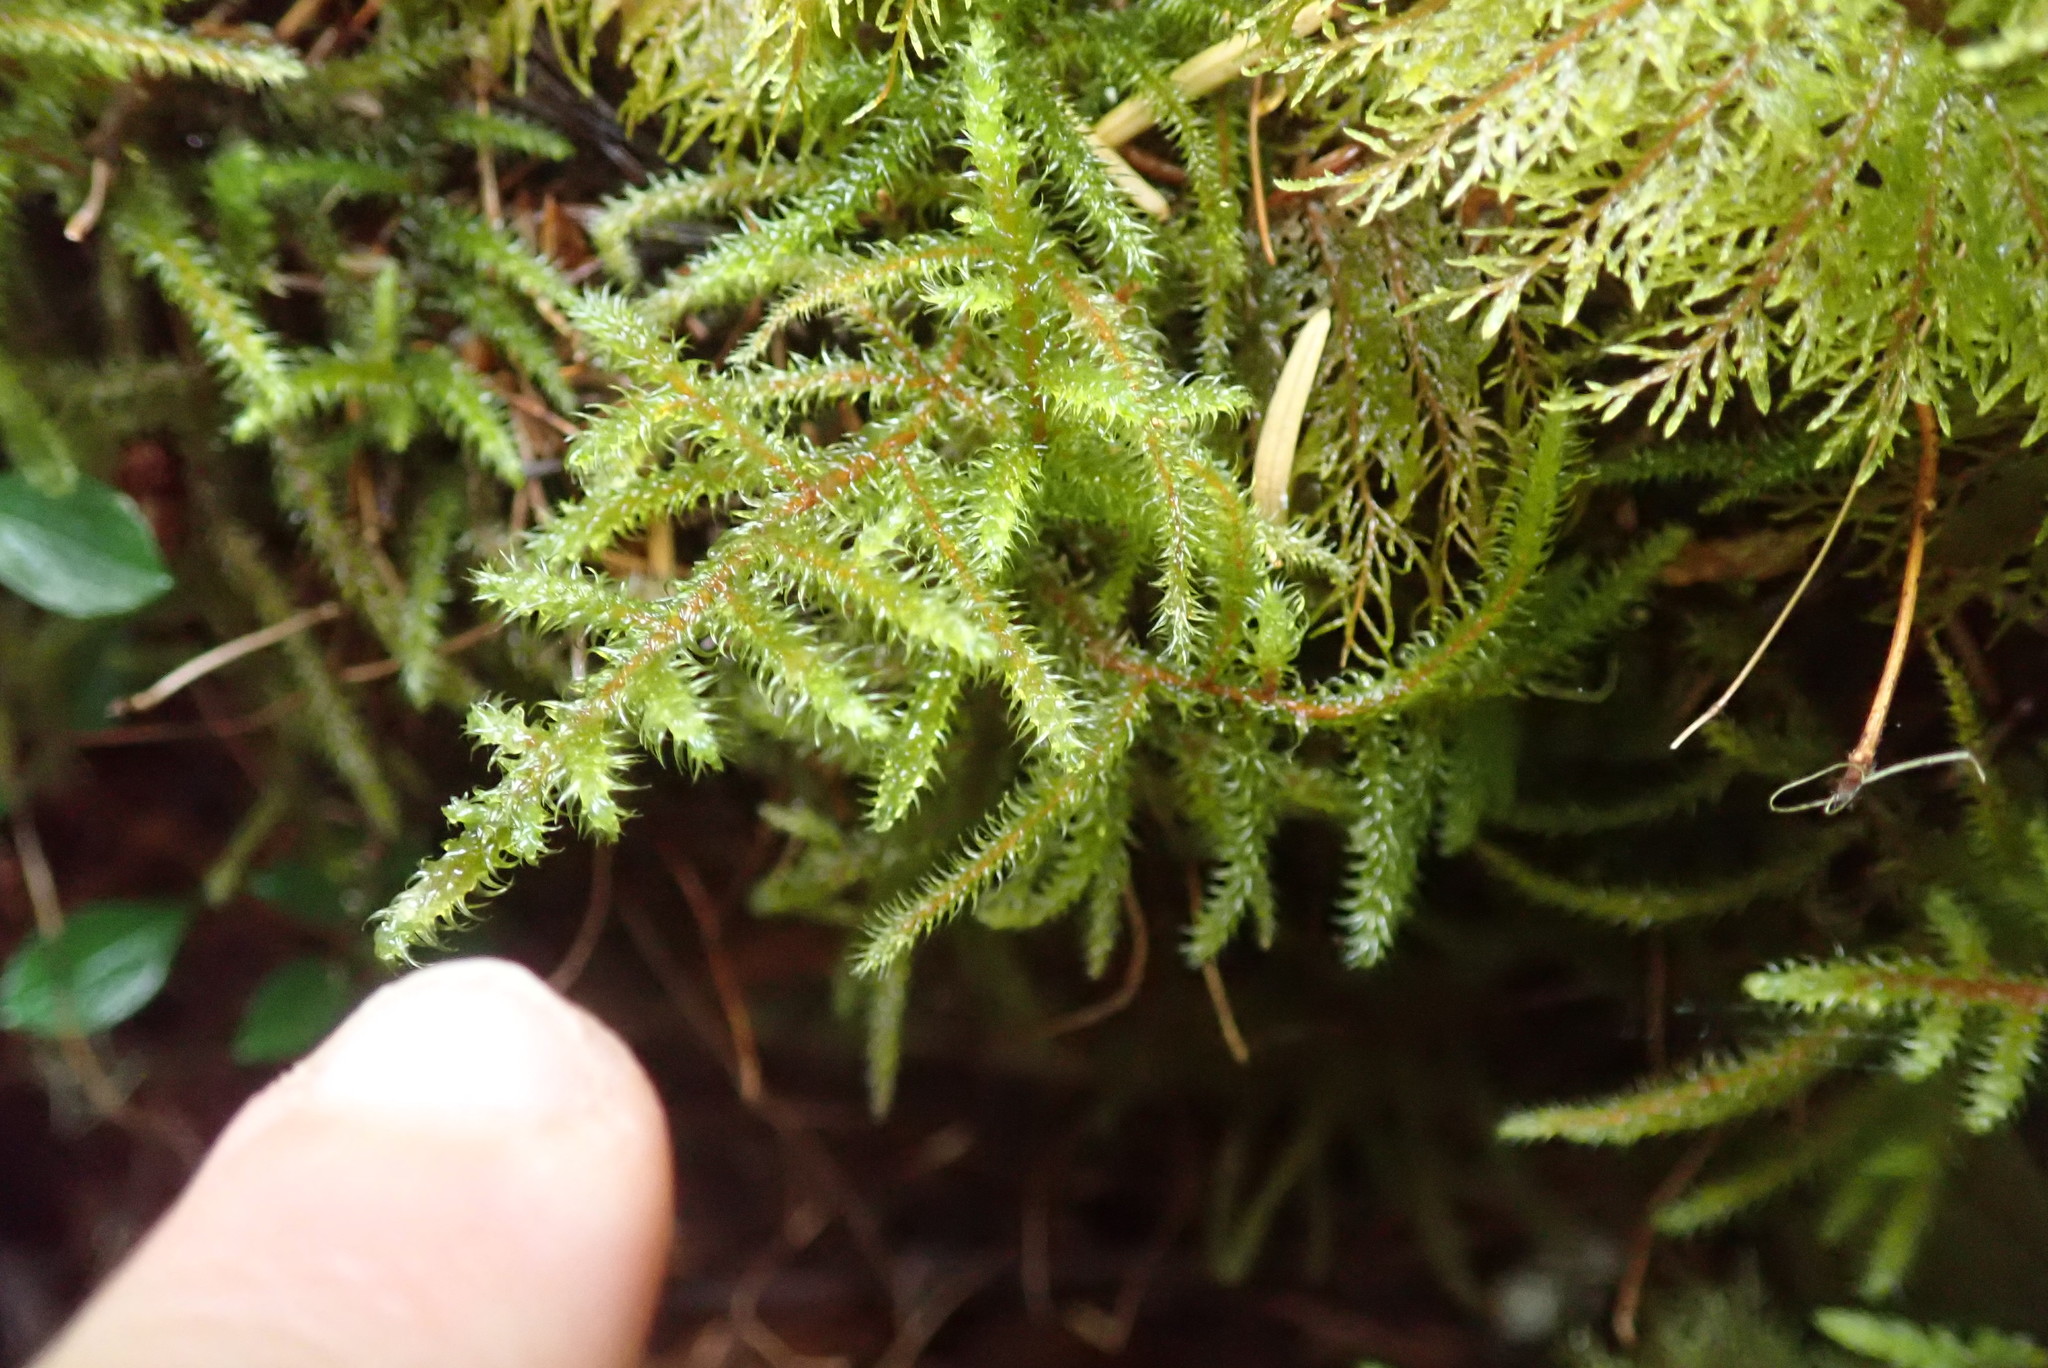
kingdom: Plantae
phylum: Bryophyta
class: Bryopsida
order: Hypnales
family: Hylocomiaceae
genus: Rhytidiadelphus
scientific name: Rhytidiadelphus loreus
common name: Lanky moss
